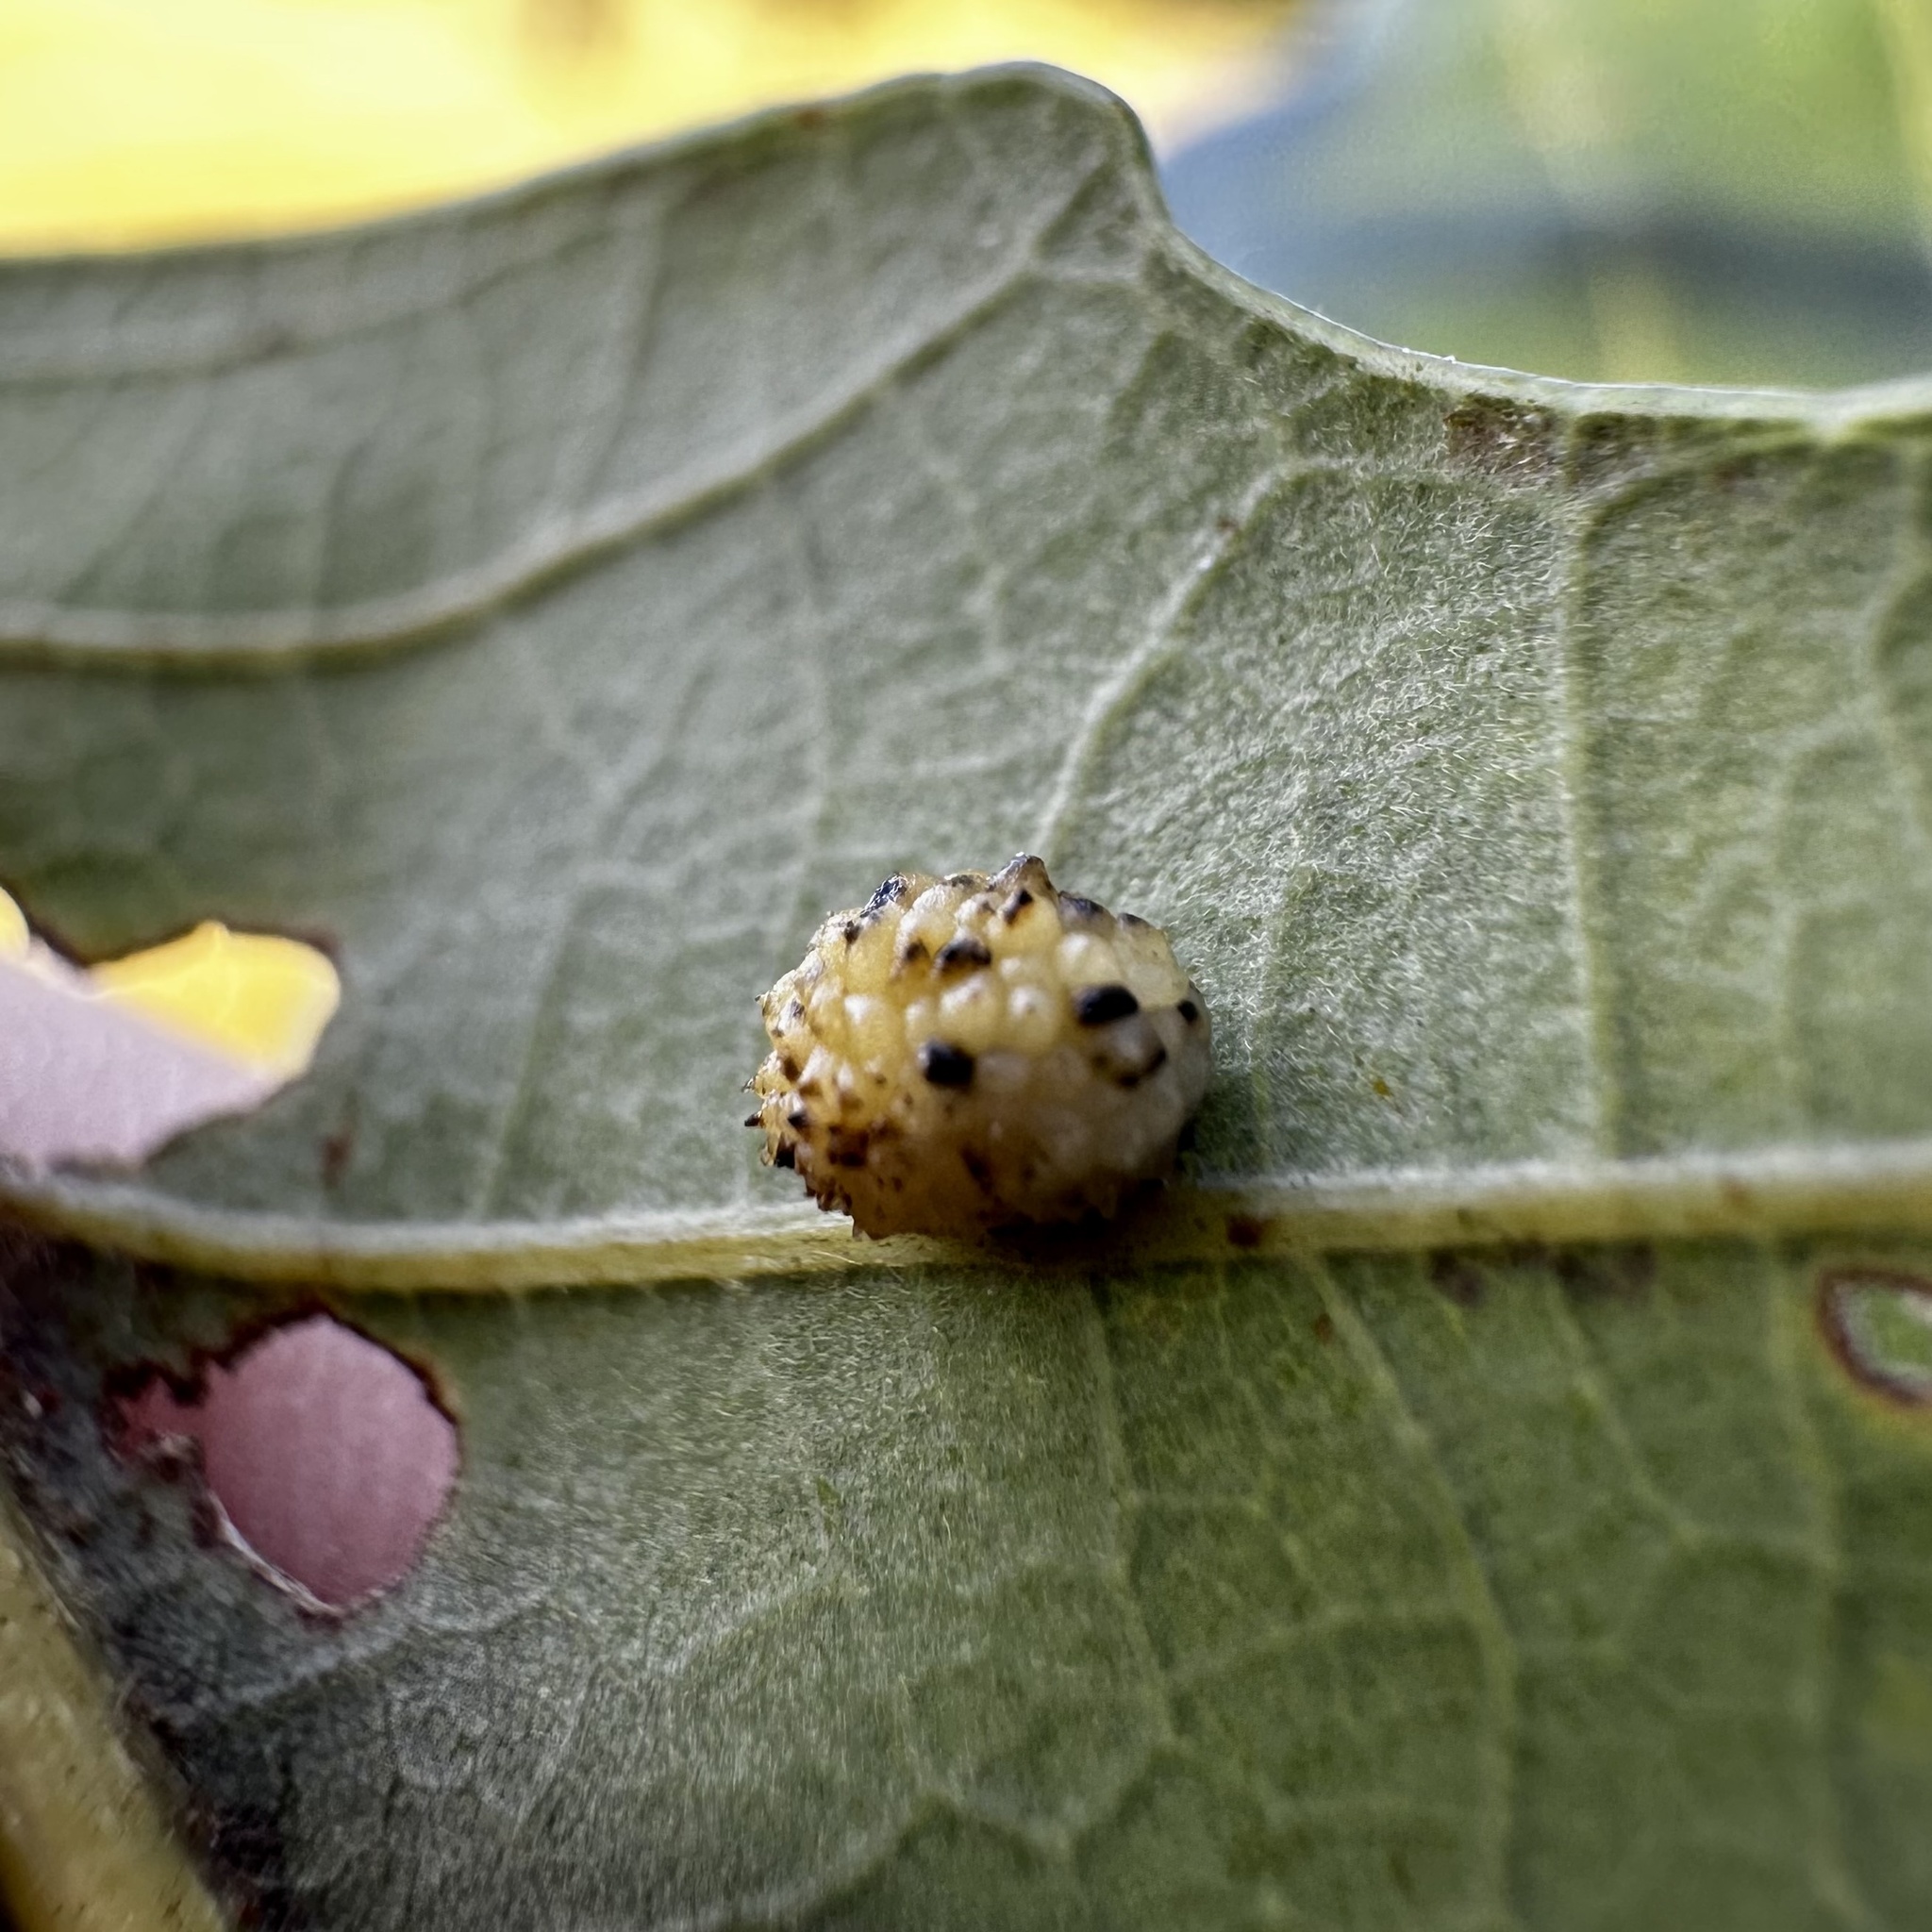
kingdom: Animalia
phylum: Arthropoda
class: Insecta
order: Hymenoptera
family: Cynipidae
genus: Acraspis
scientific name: Acraspis
